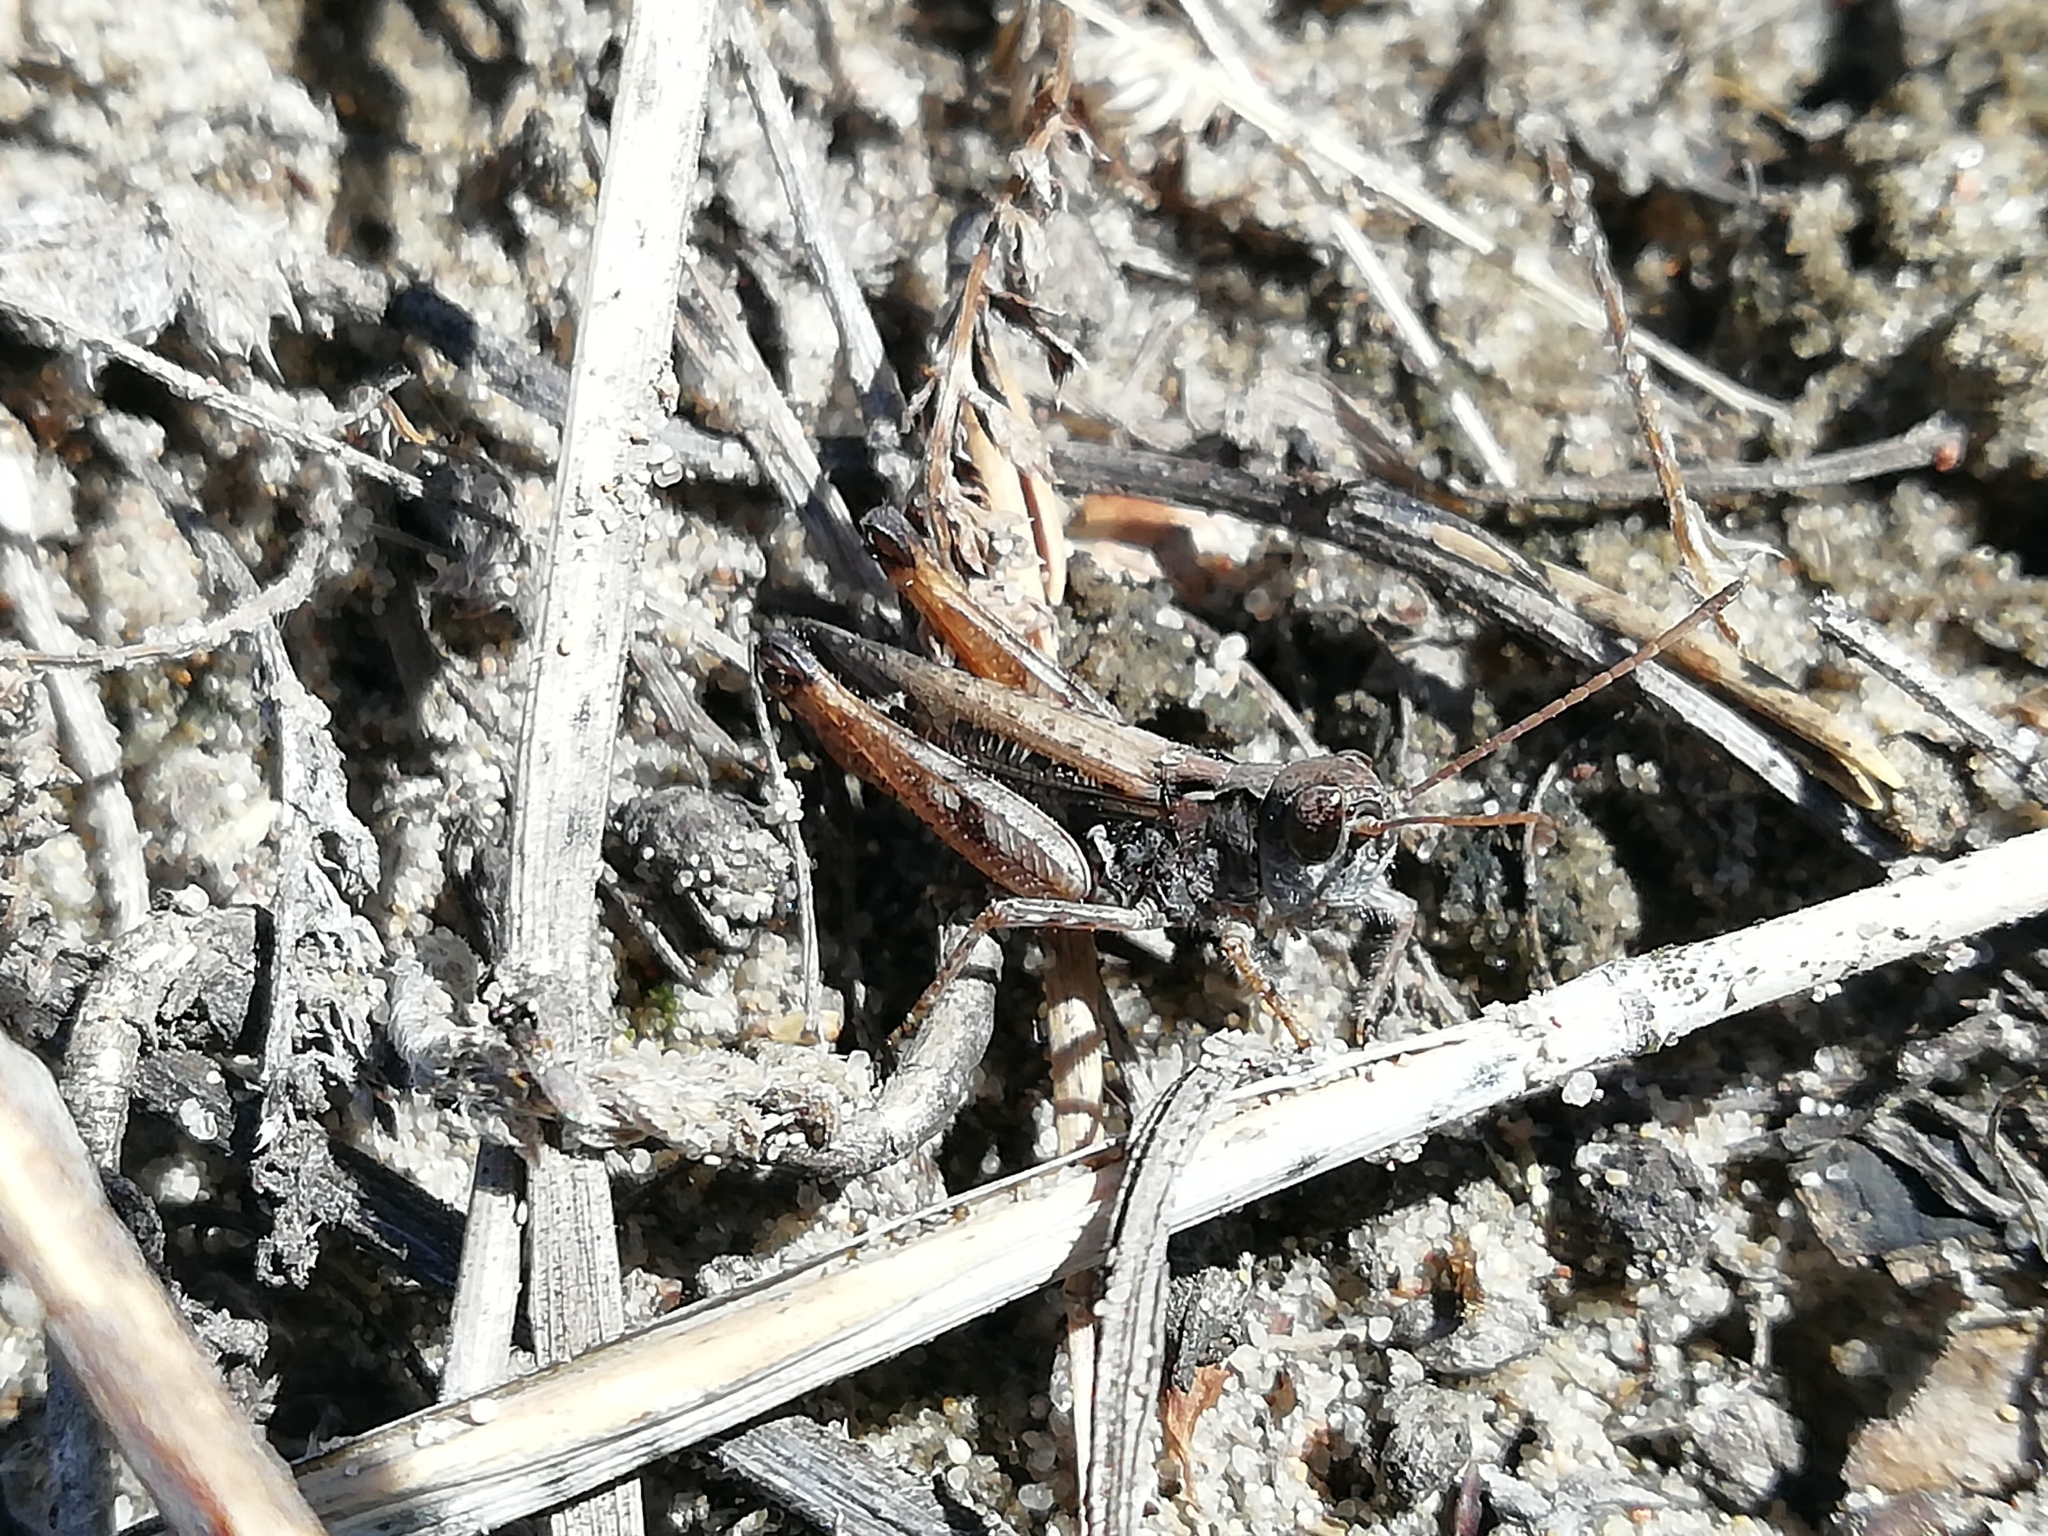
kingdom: Animalia
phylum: Arthropoda
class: Insecta
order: Orthoptera
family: Acrididae
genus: Myrmeleotettix
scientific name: Myrmeleotettix maculatus
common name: Mottled grasshopper
